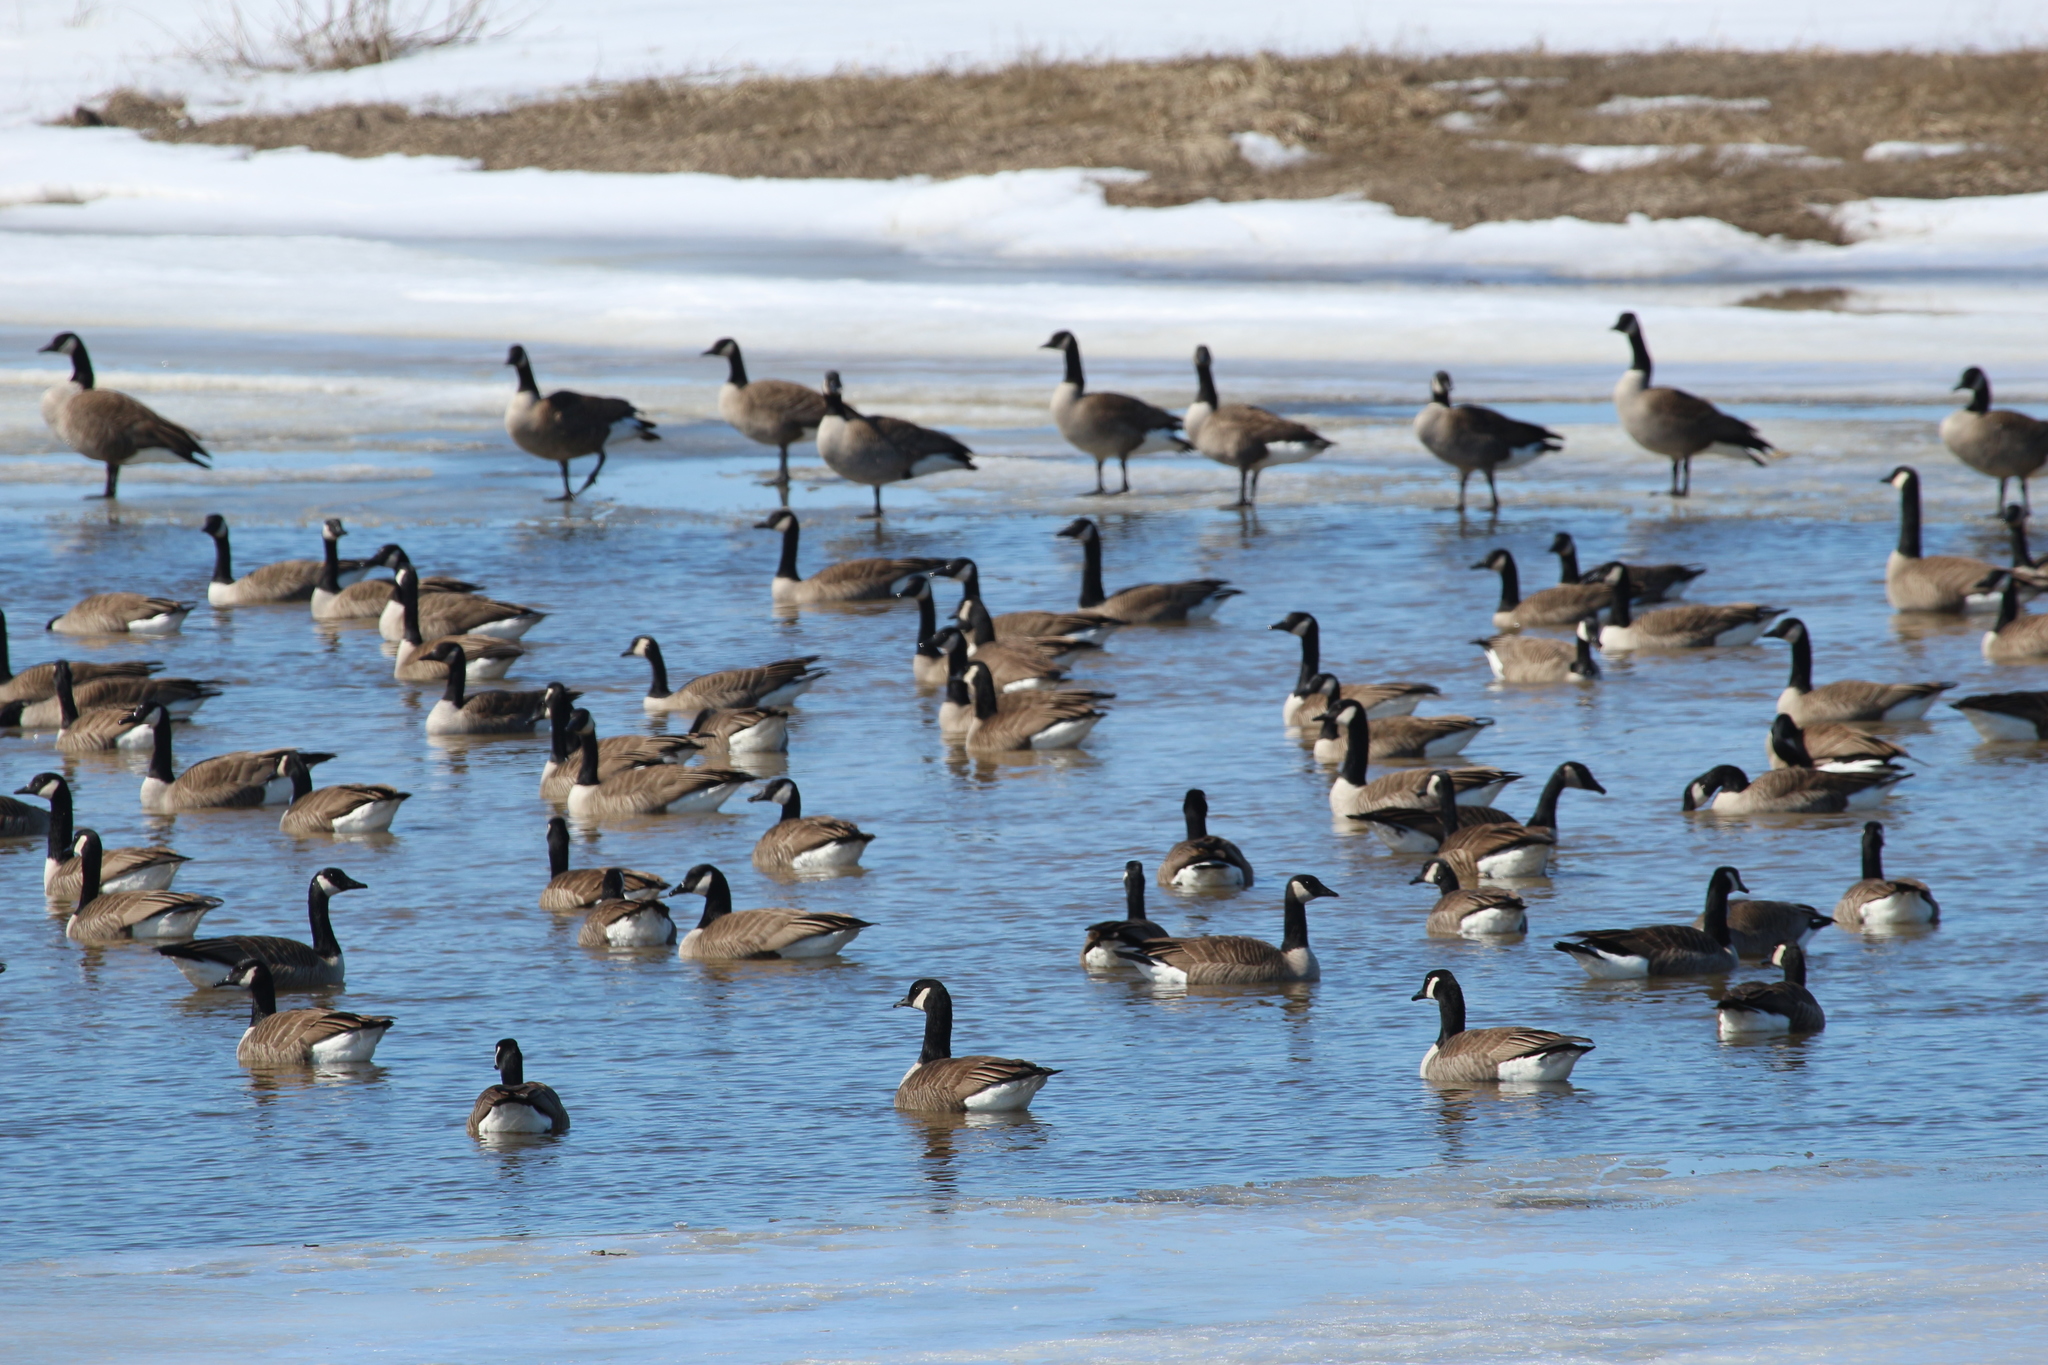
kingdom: Animalia
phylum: Chordata
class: Aves
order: Anseriformes
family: Anatidae
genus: Branta
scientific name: Branta canadensis
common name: Canada goose
